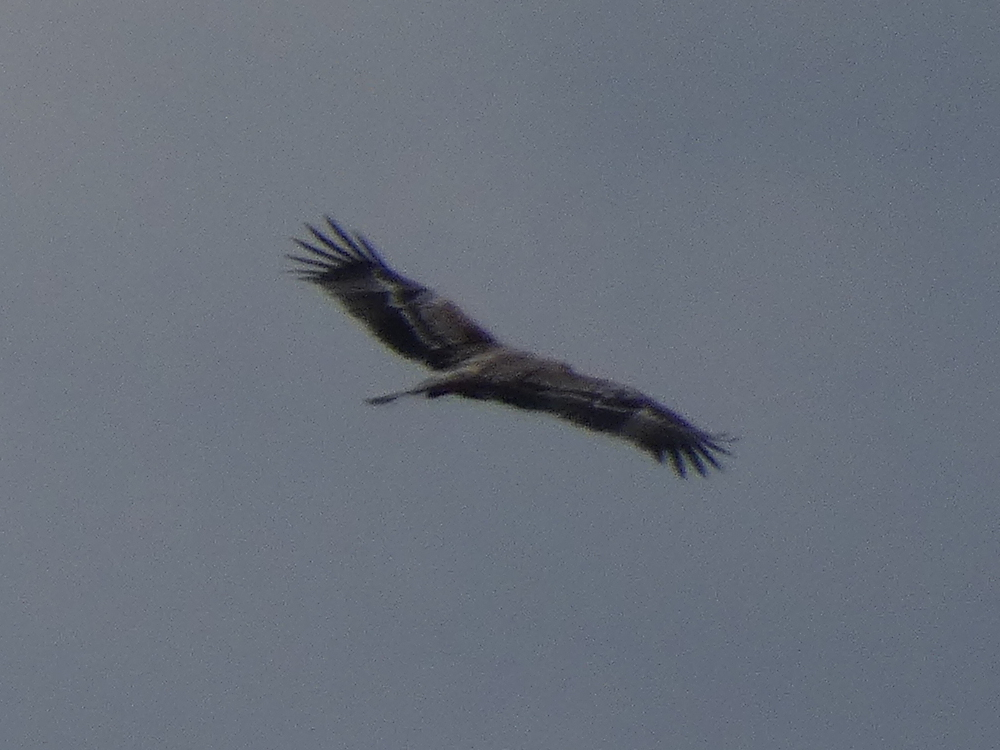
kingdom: Animalia
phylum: Chordata
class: Aves
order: Accipitriformes
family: Accipitridae
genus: Aquila
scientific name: Aquila heliaca
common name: Eastern imperial eagle
